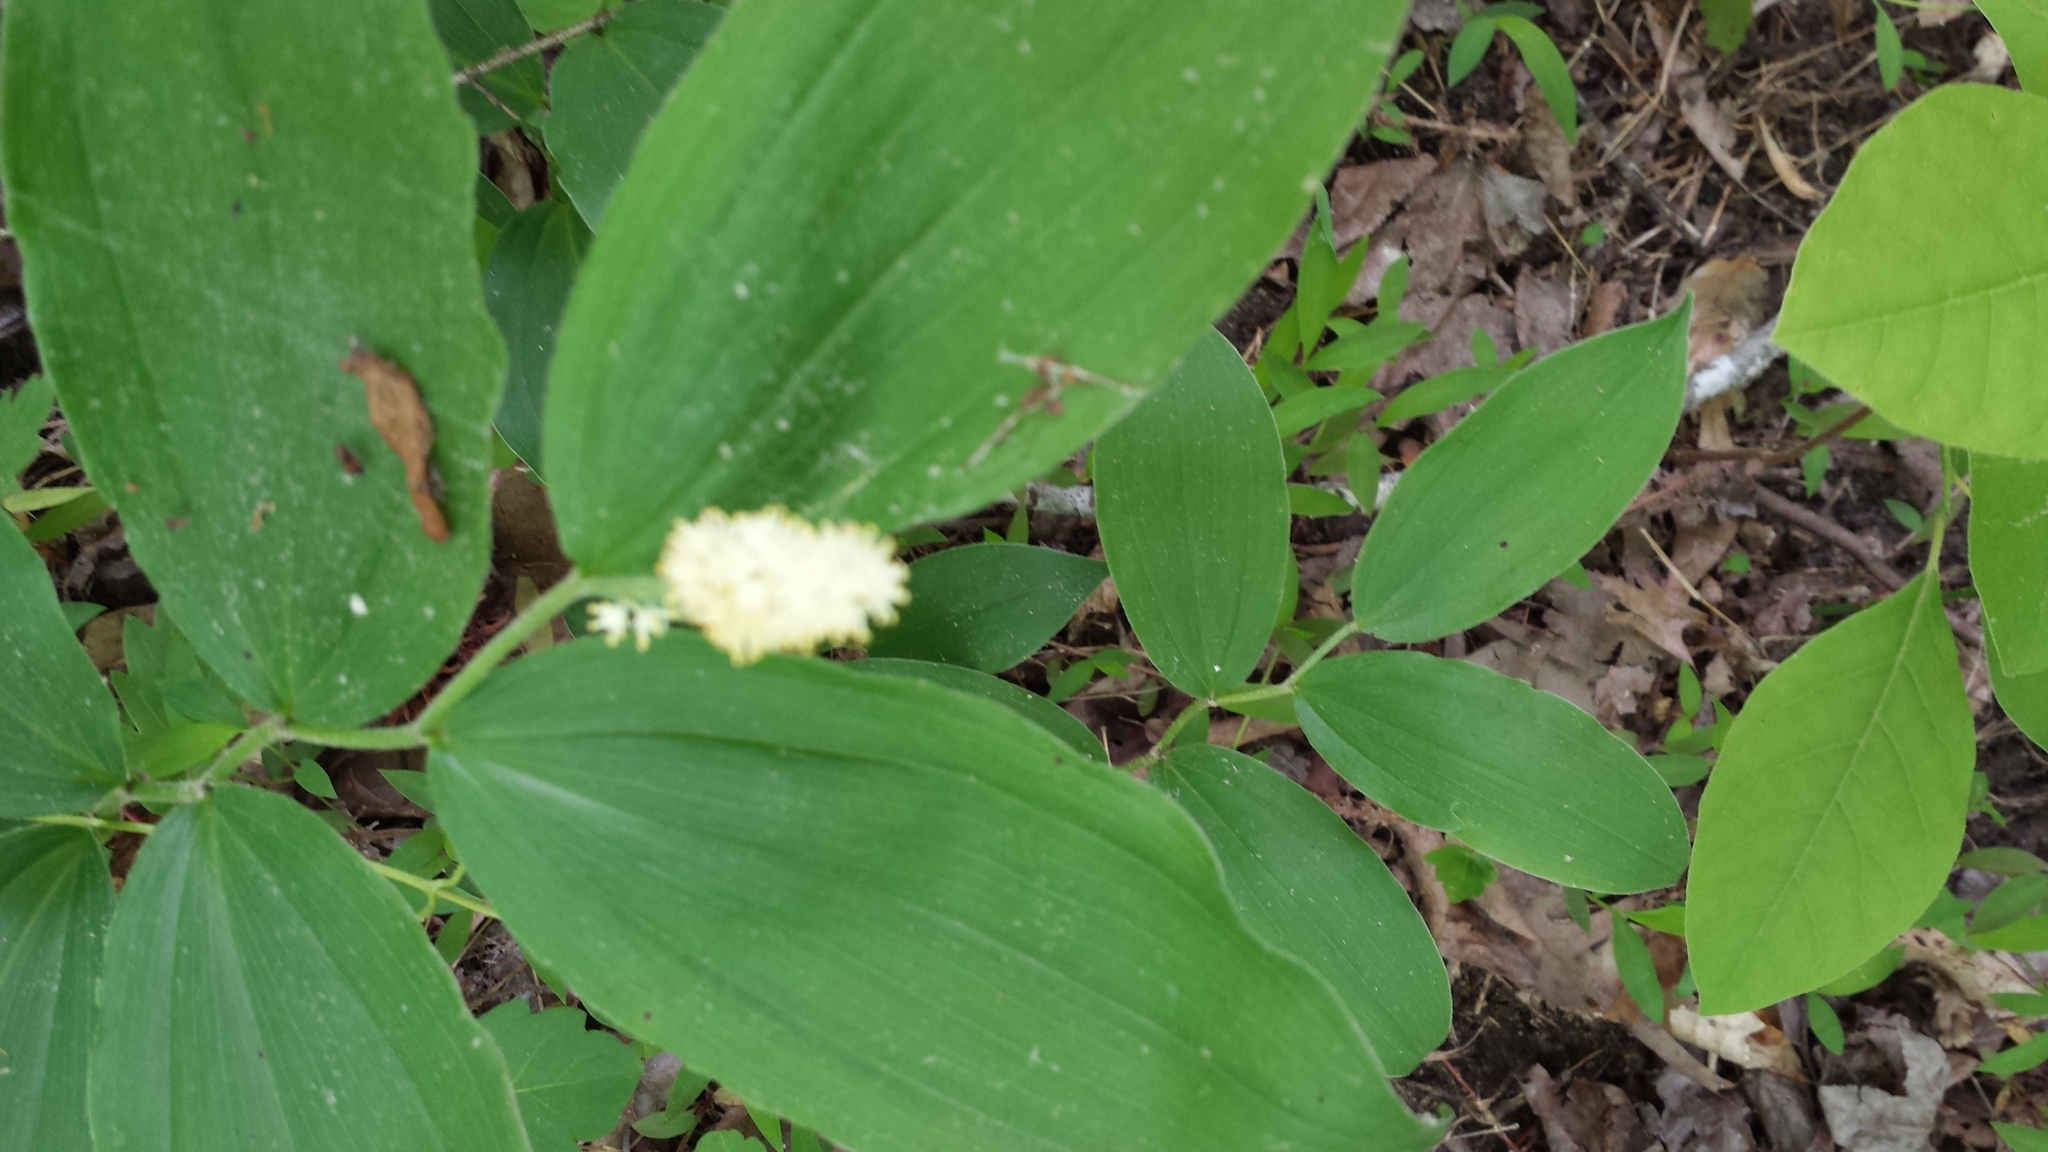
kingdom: Plantae
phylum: Tracheophyta
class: Liliopsida
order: Asparagales
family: Asparagaceae
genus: Maianthemum
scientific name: Maianthemum racemosum
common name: False spikenard
